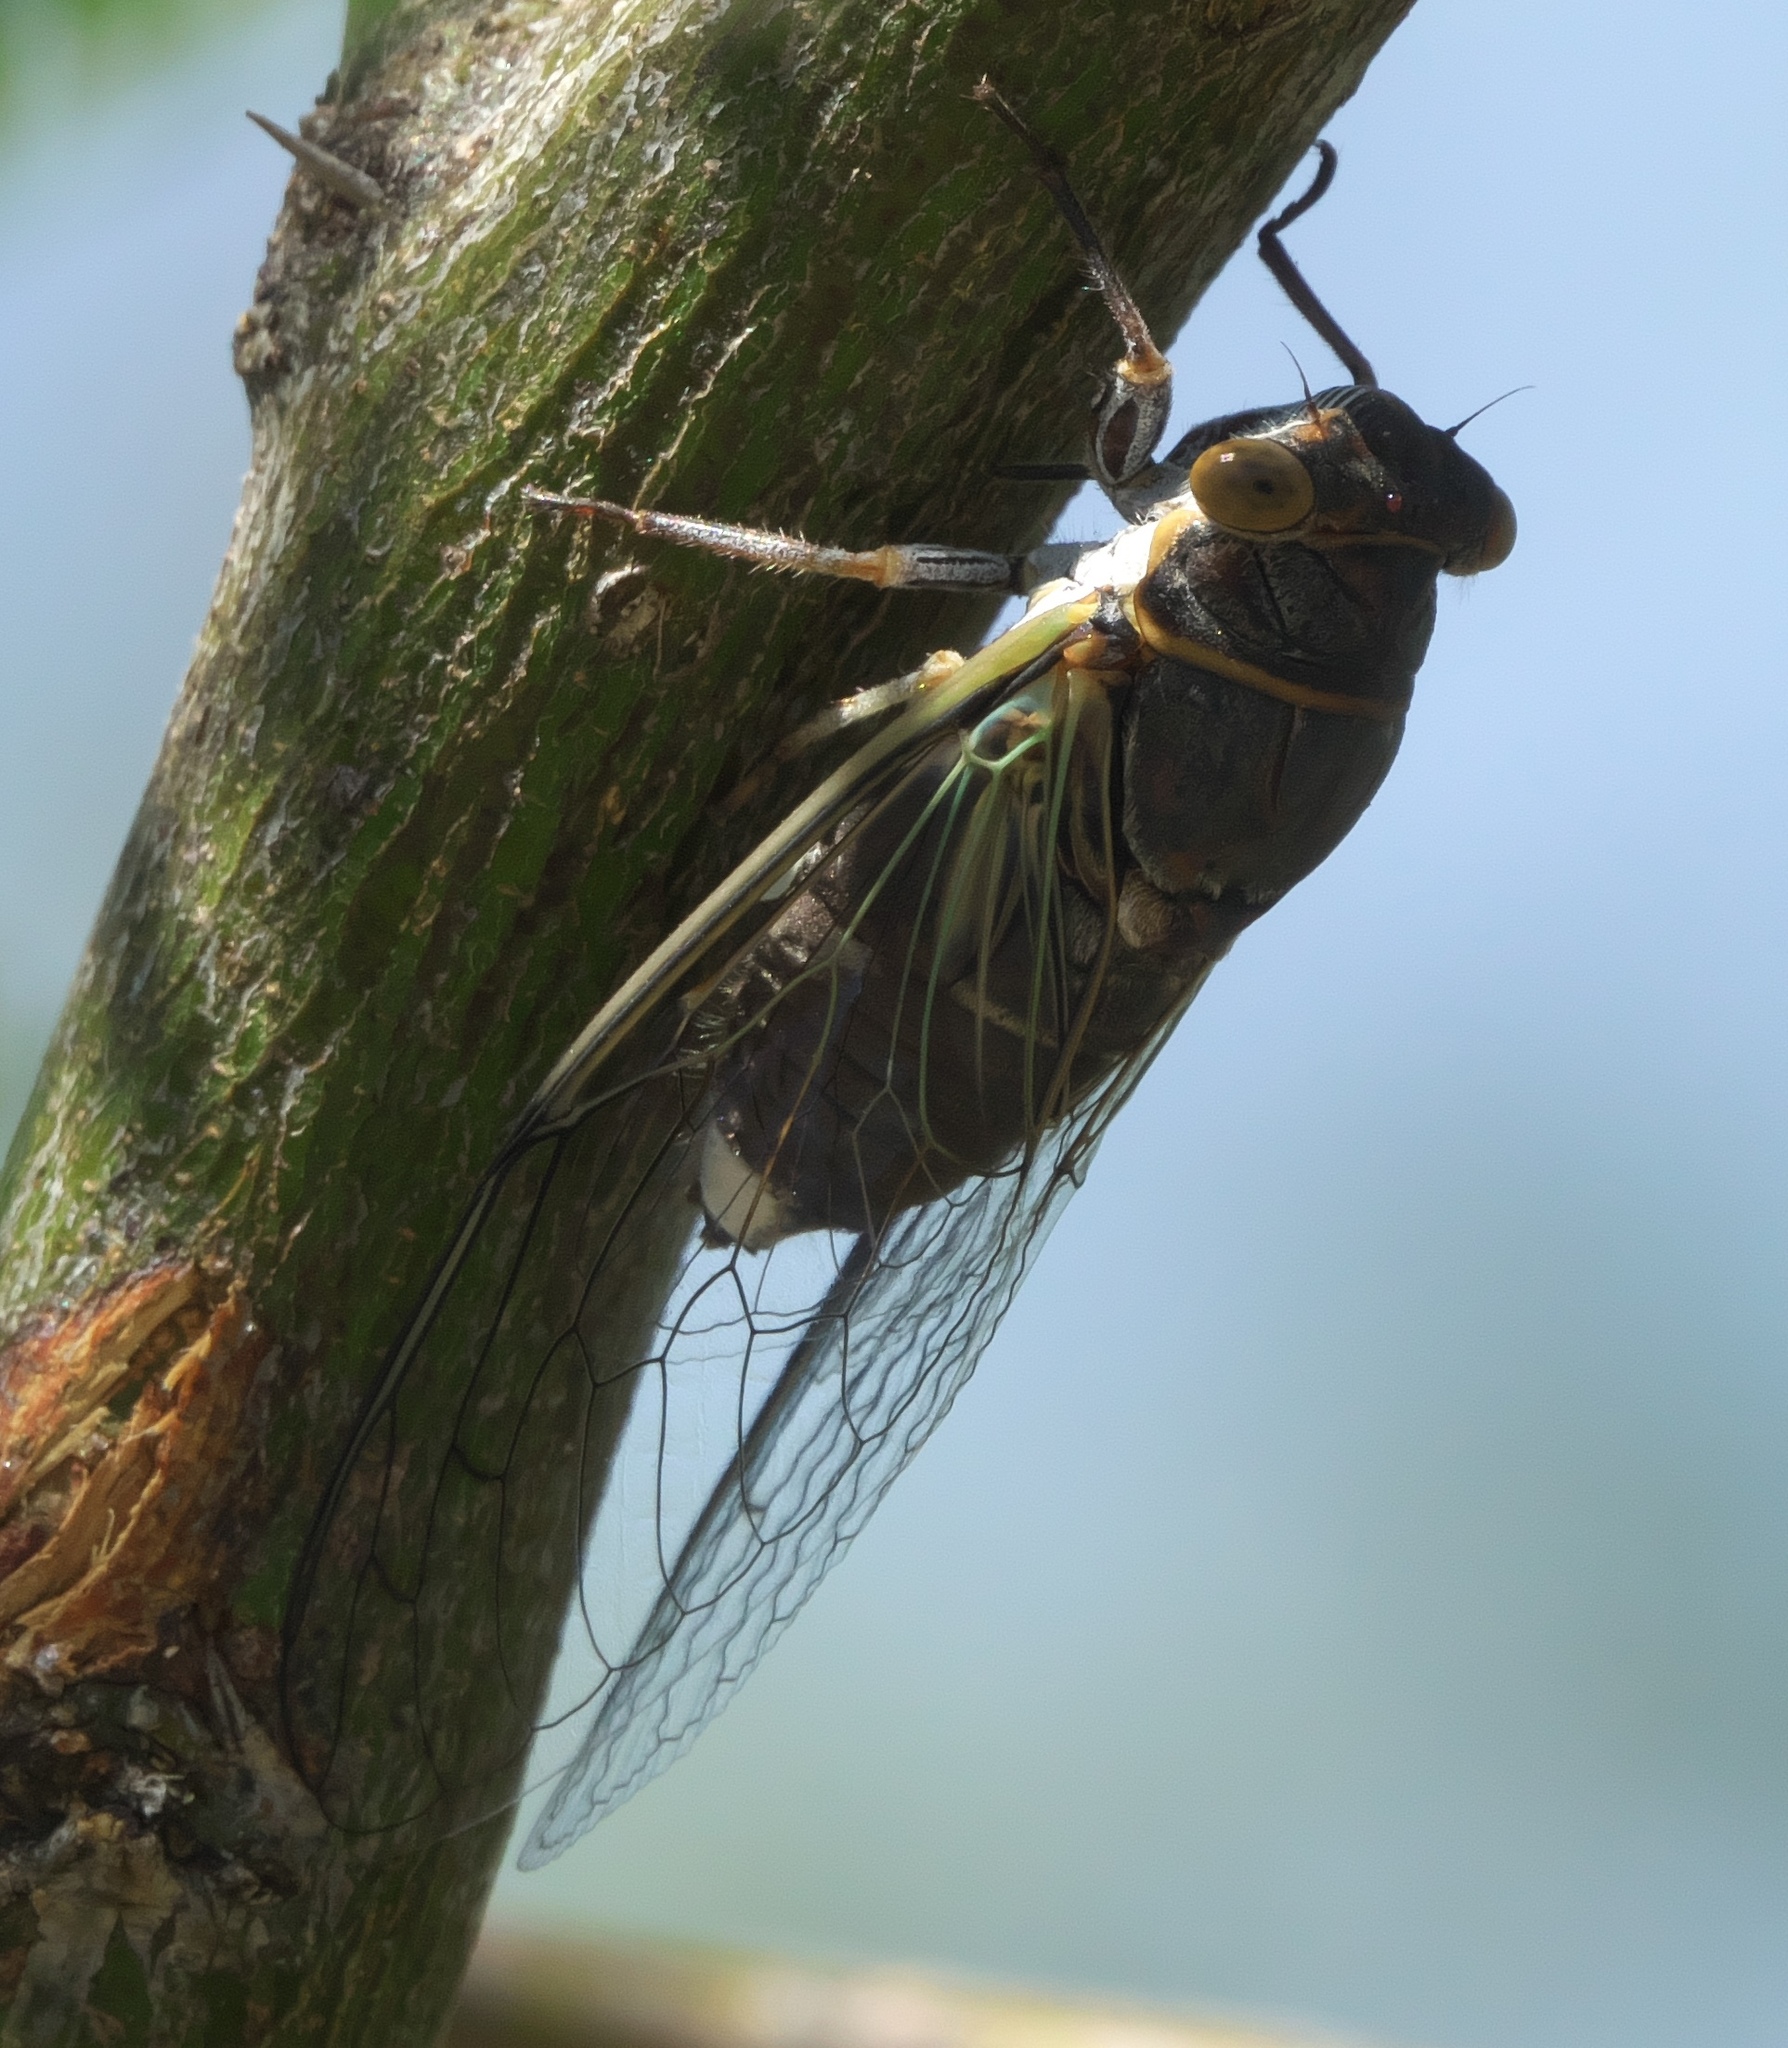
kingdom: Animalia
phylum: Arthropoda
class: Insecta
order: Hemiptera
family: Cicadidae
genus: Diceroprocta
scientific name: Diceroprocta semicincta
